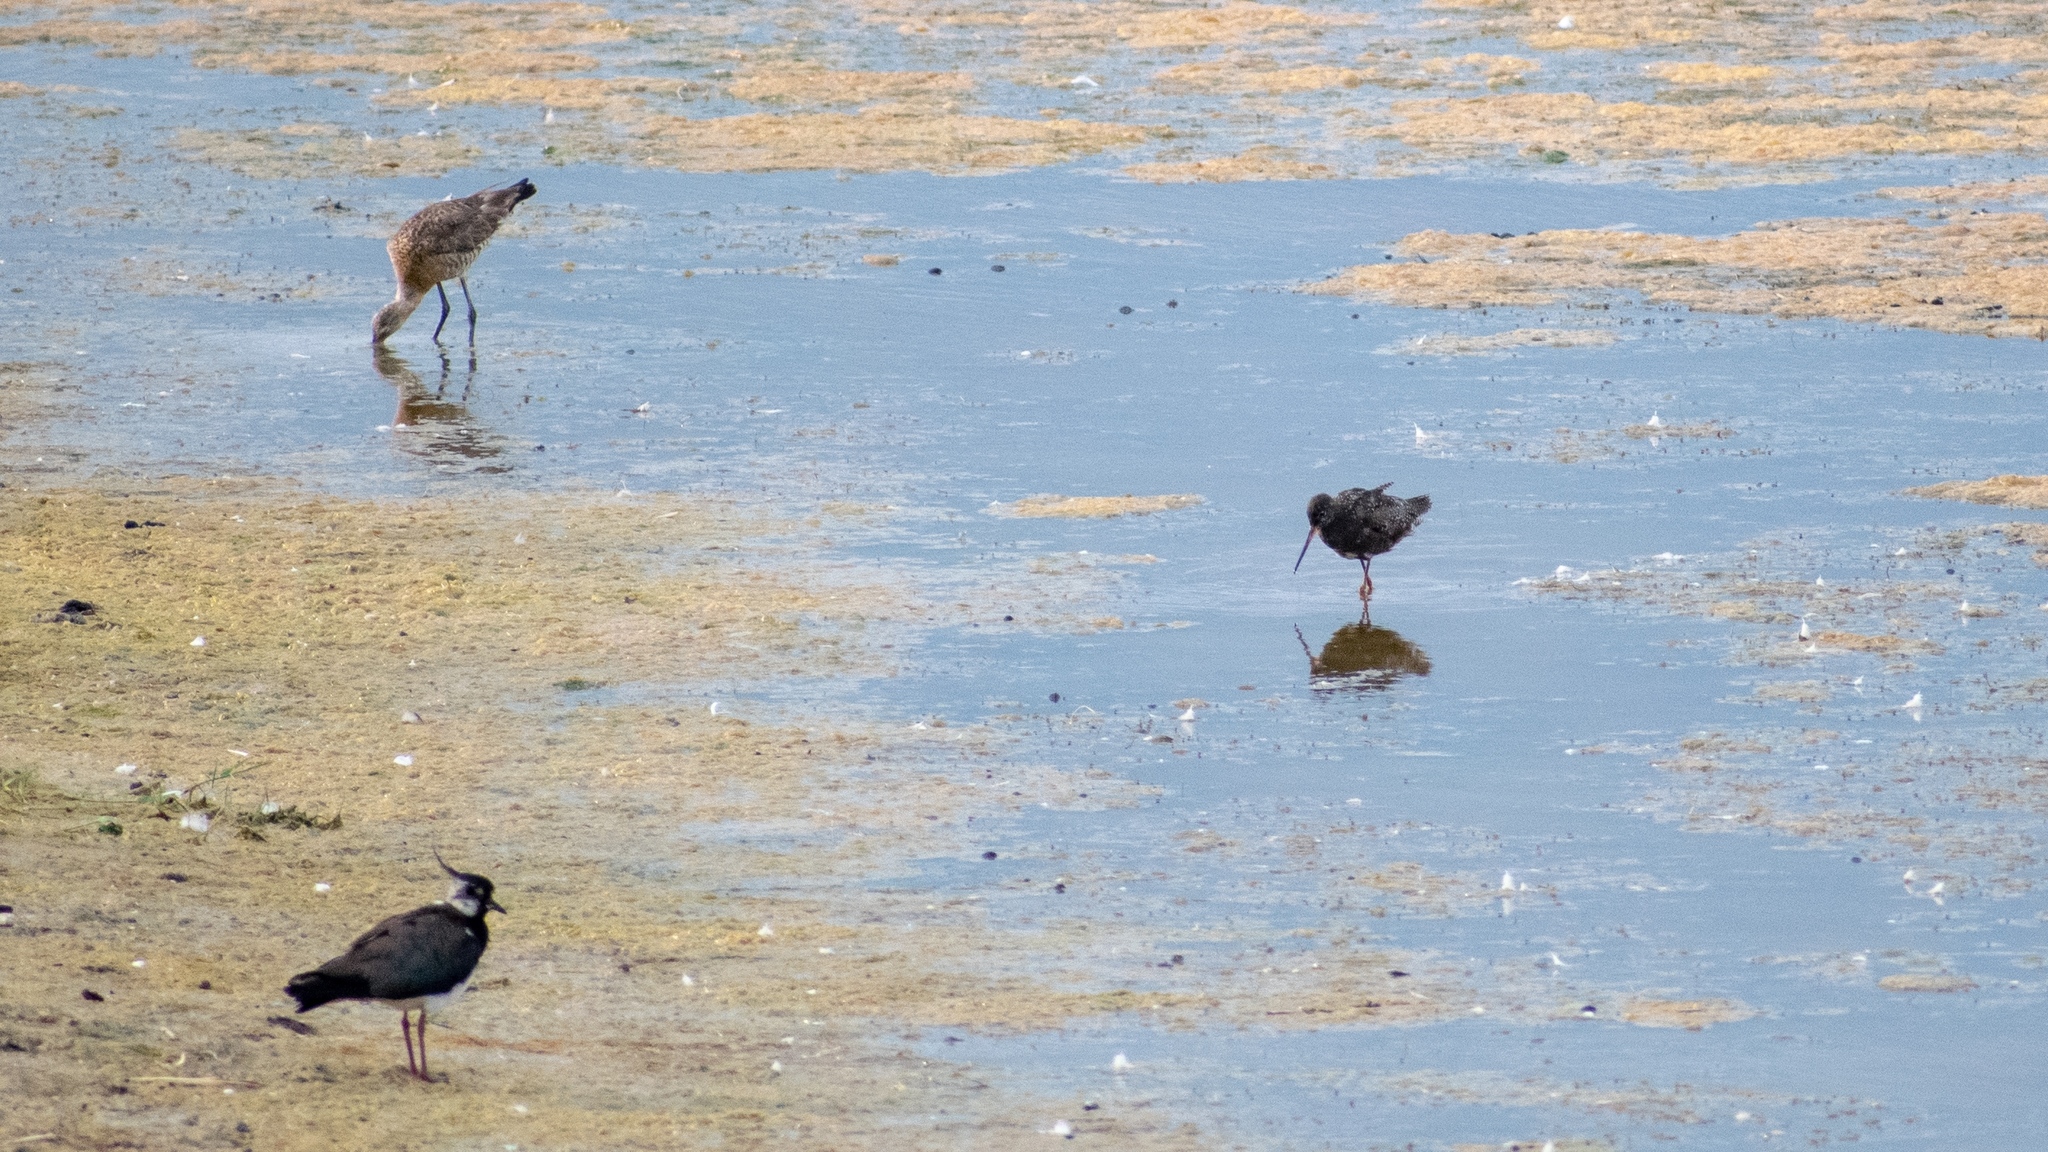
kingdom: Animalia
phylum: Chordata
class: Aves
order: Charadriiformes
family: Scolopacidae
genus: Limosa
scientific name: Limosa limosa
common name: Black-tailed godwit
